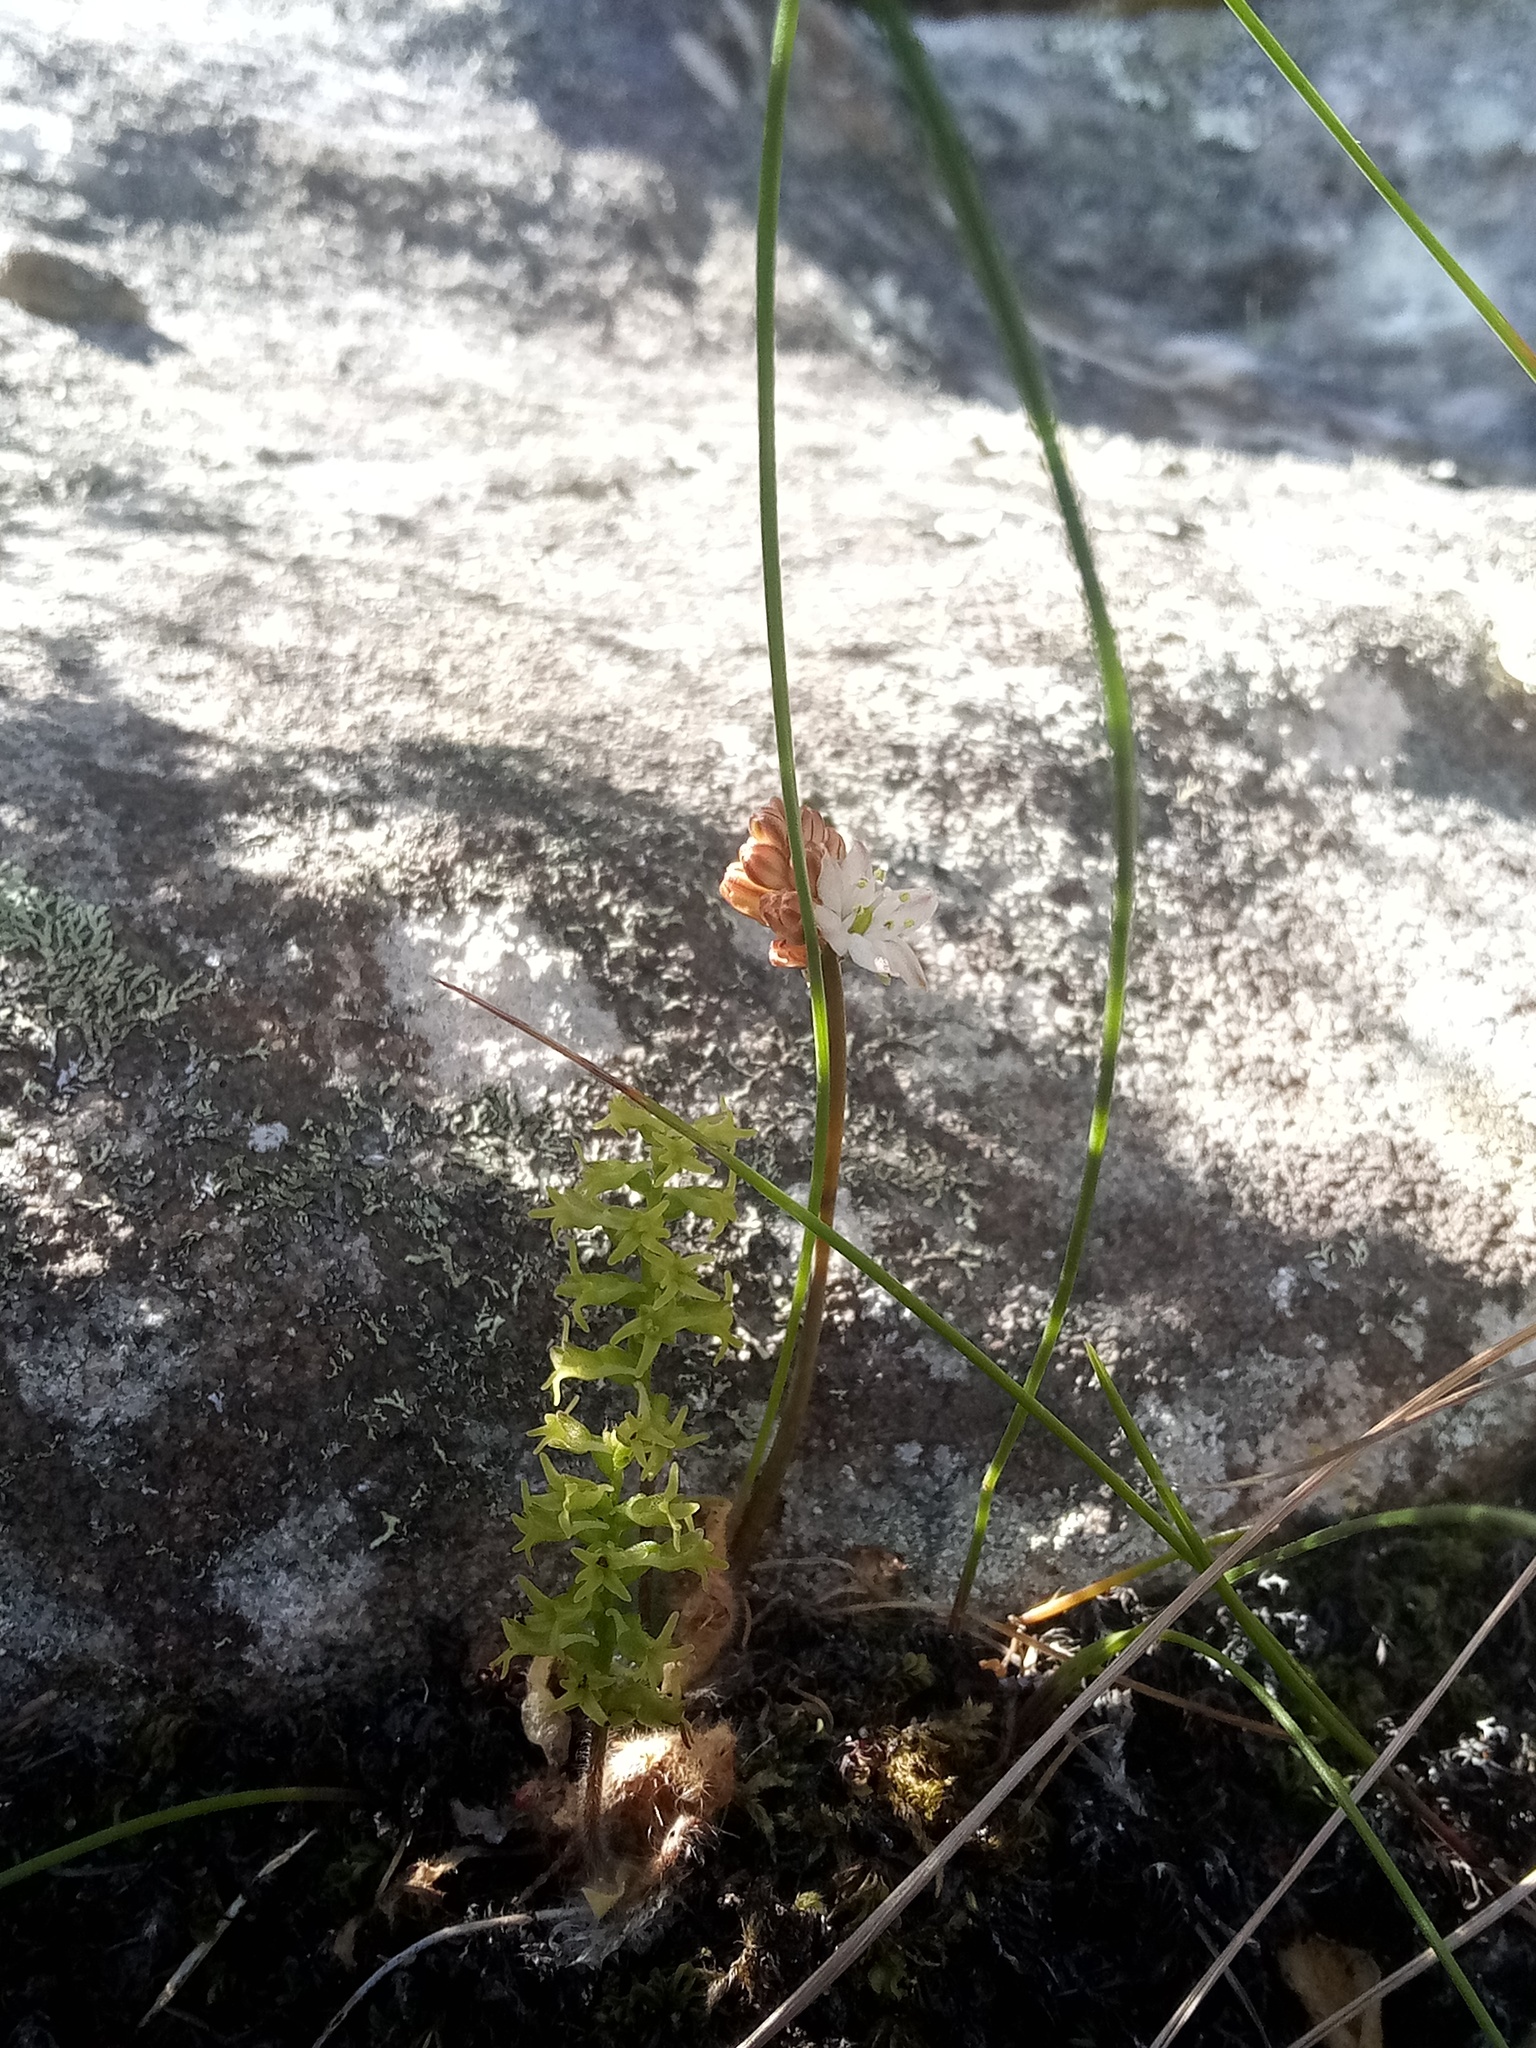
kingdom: Plantae
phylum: Tracheophyta
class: Liliopsida
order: Asparagales
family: Asparagaceae
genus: Austronea
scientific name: Austronea virens
